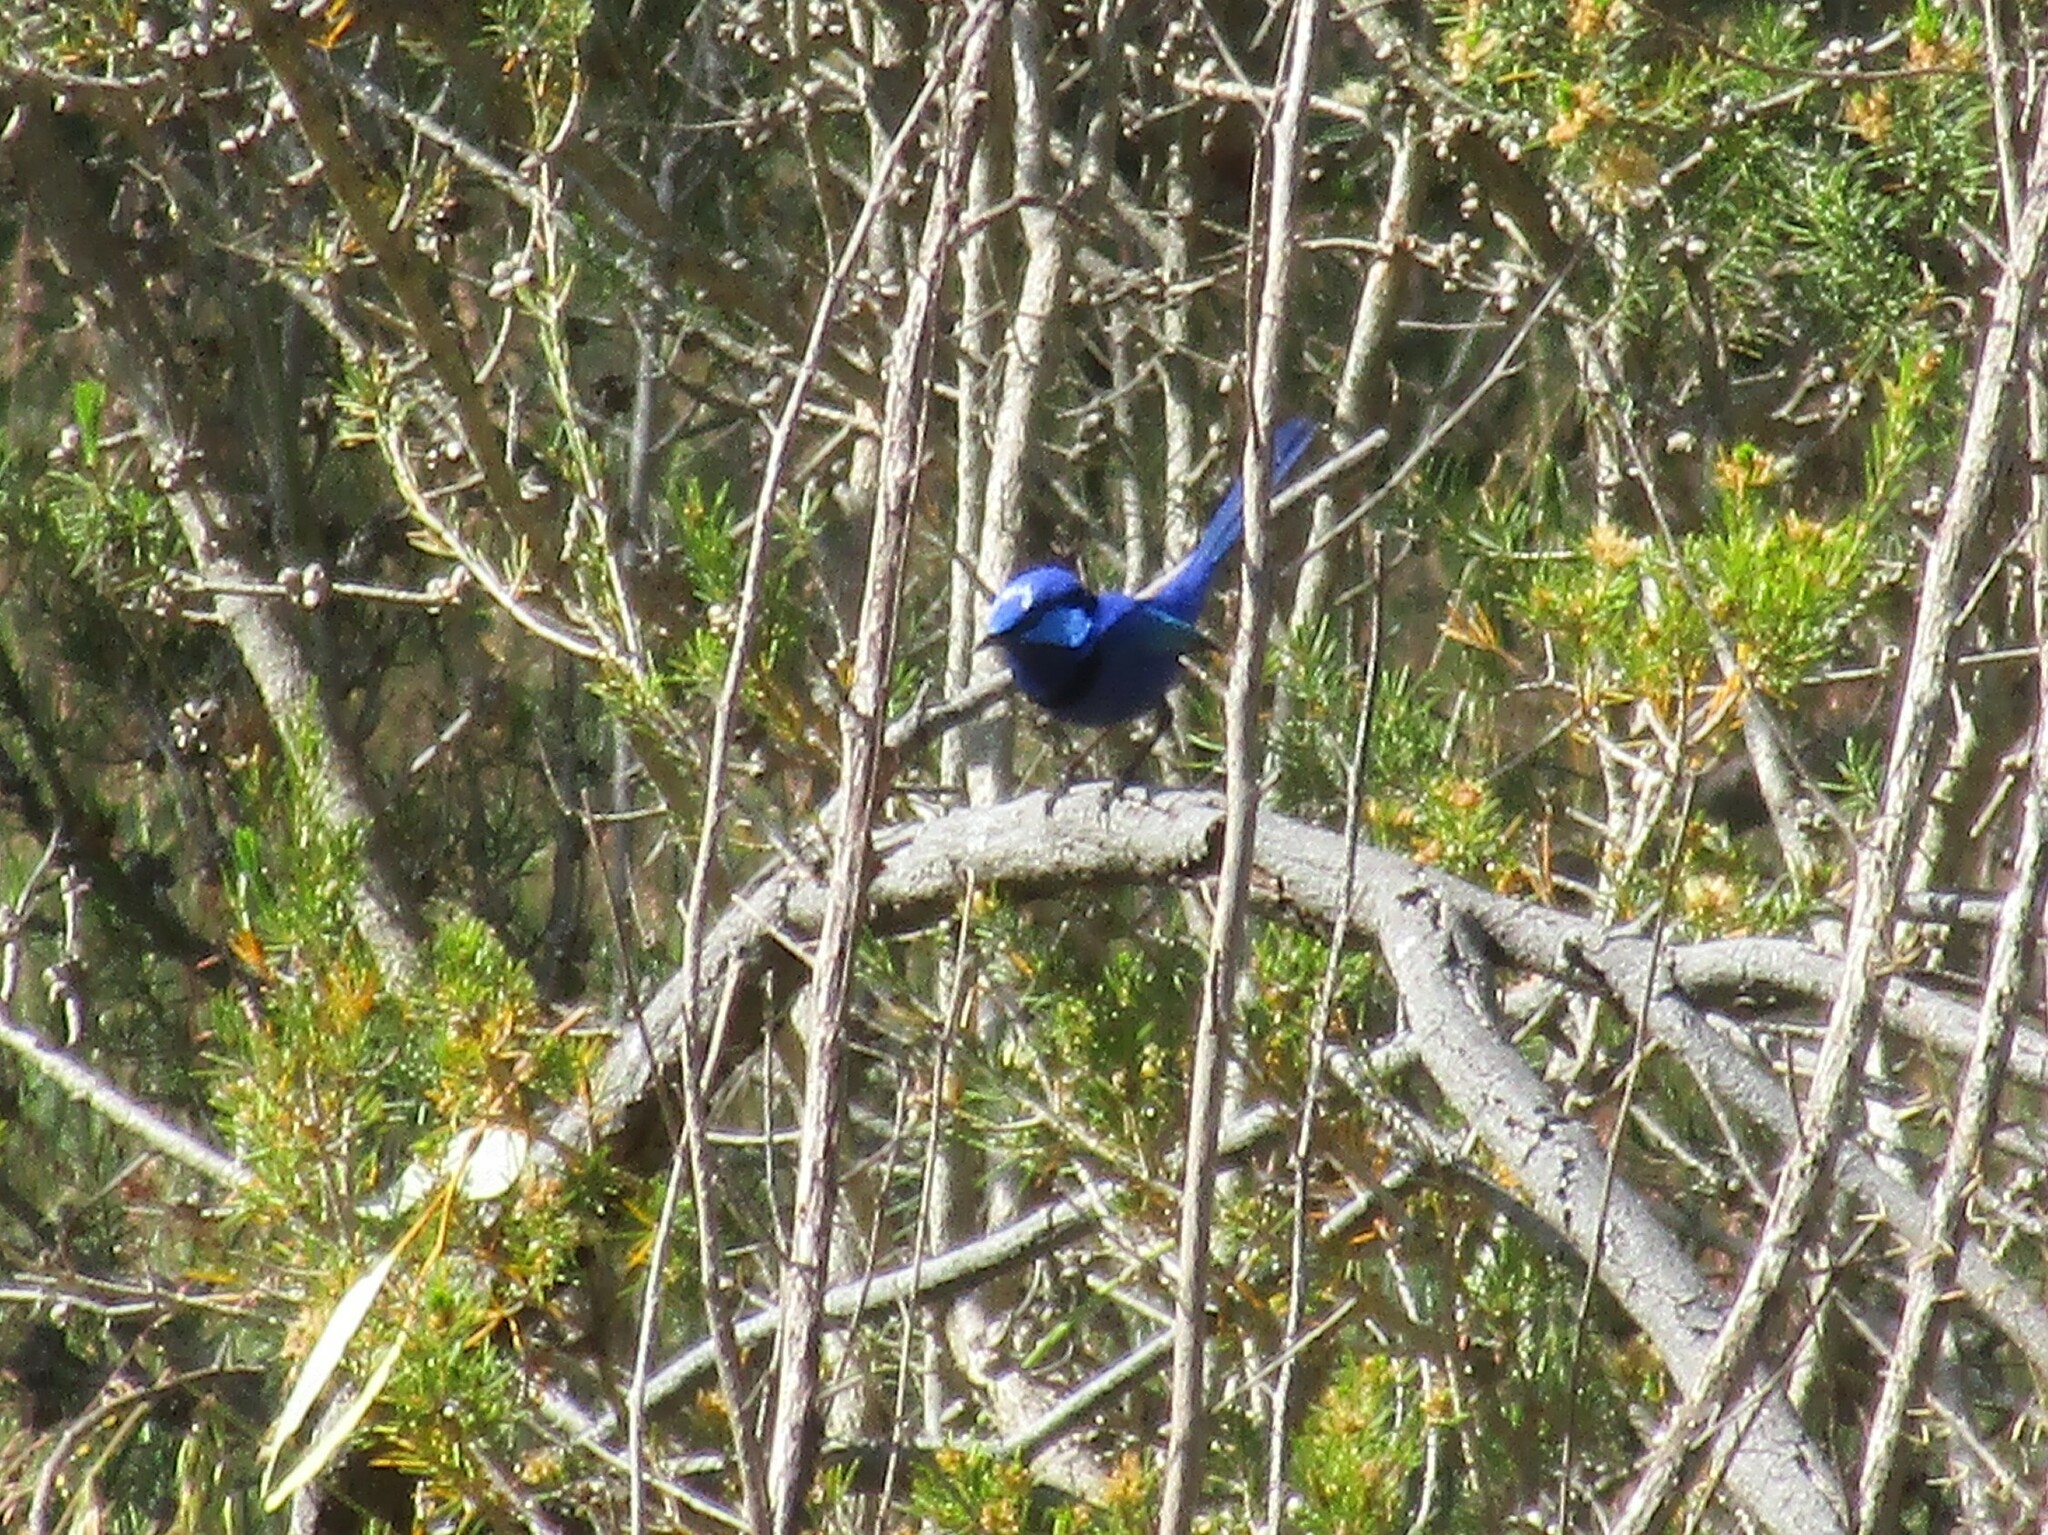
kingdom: Animalia
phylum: Chordata
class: Aves
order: Passeriformes
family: Maluridae
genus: Malurus
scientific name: Malurus splendens
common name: Splendid fairywren
